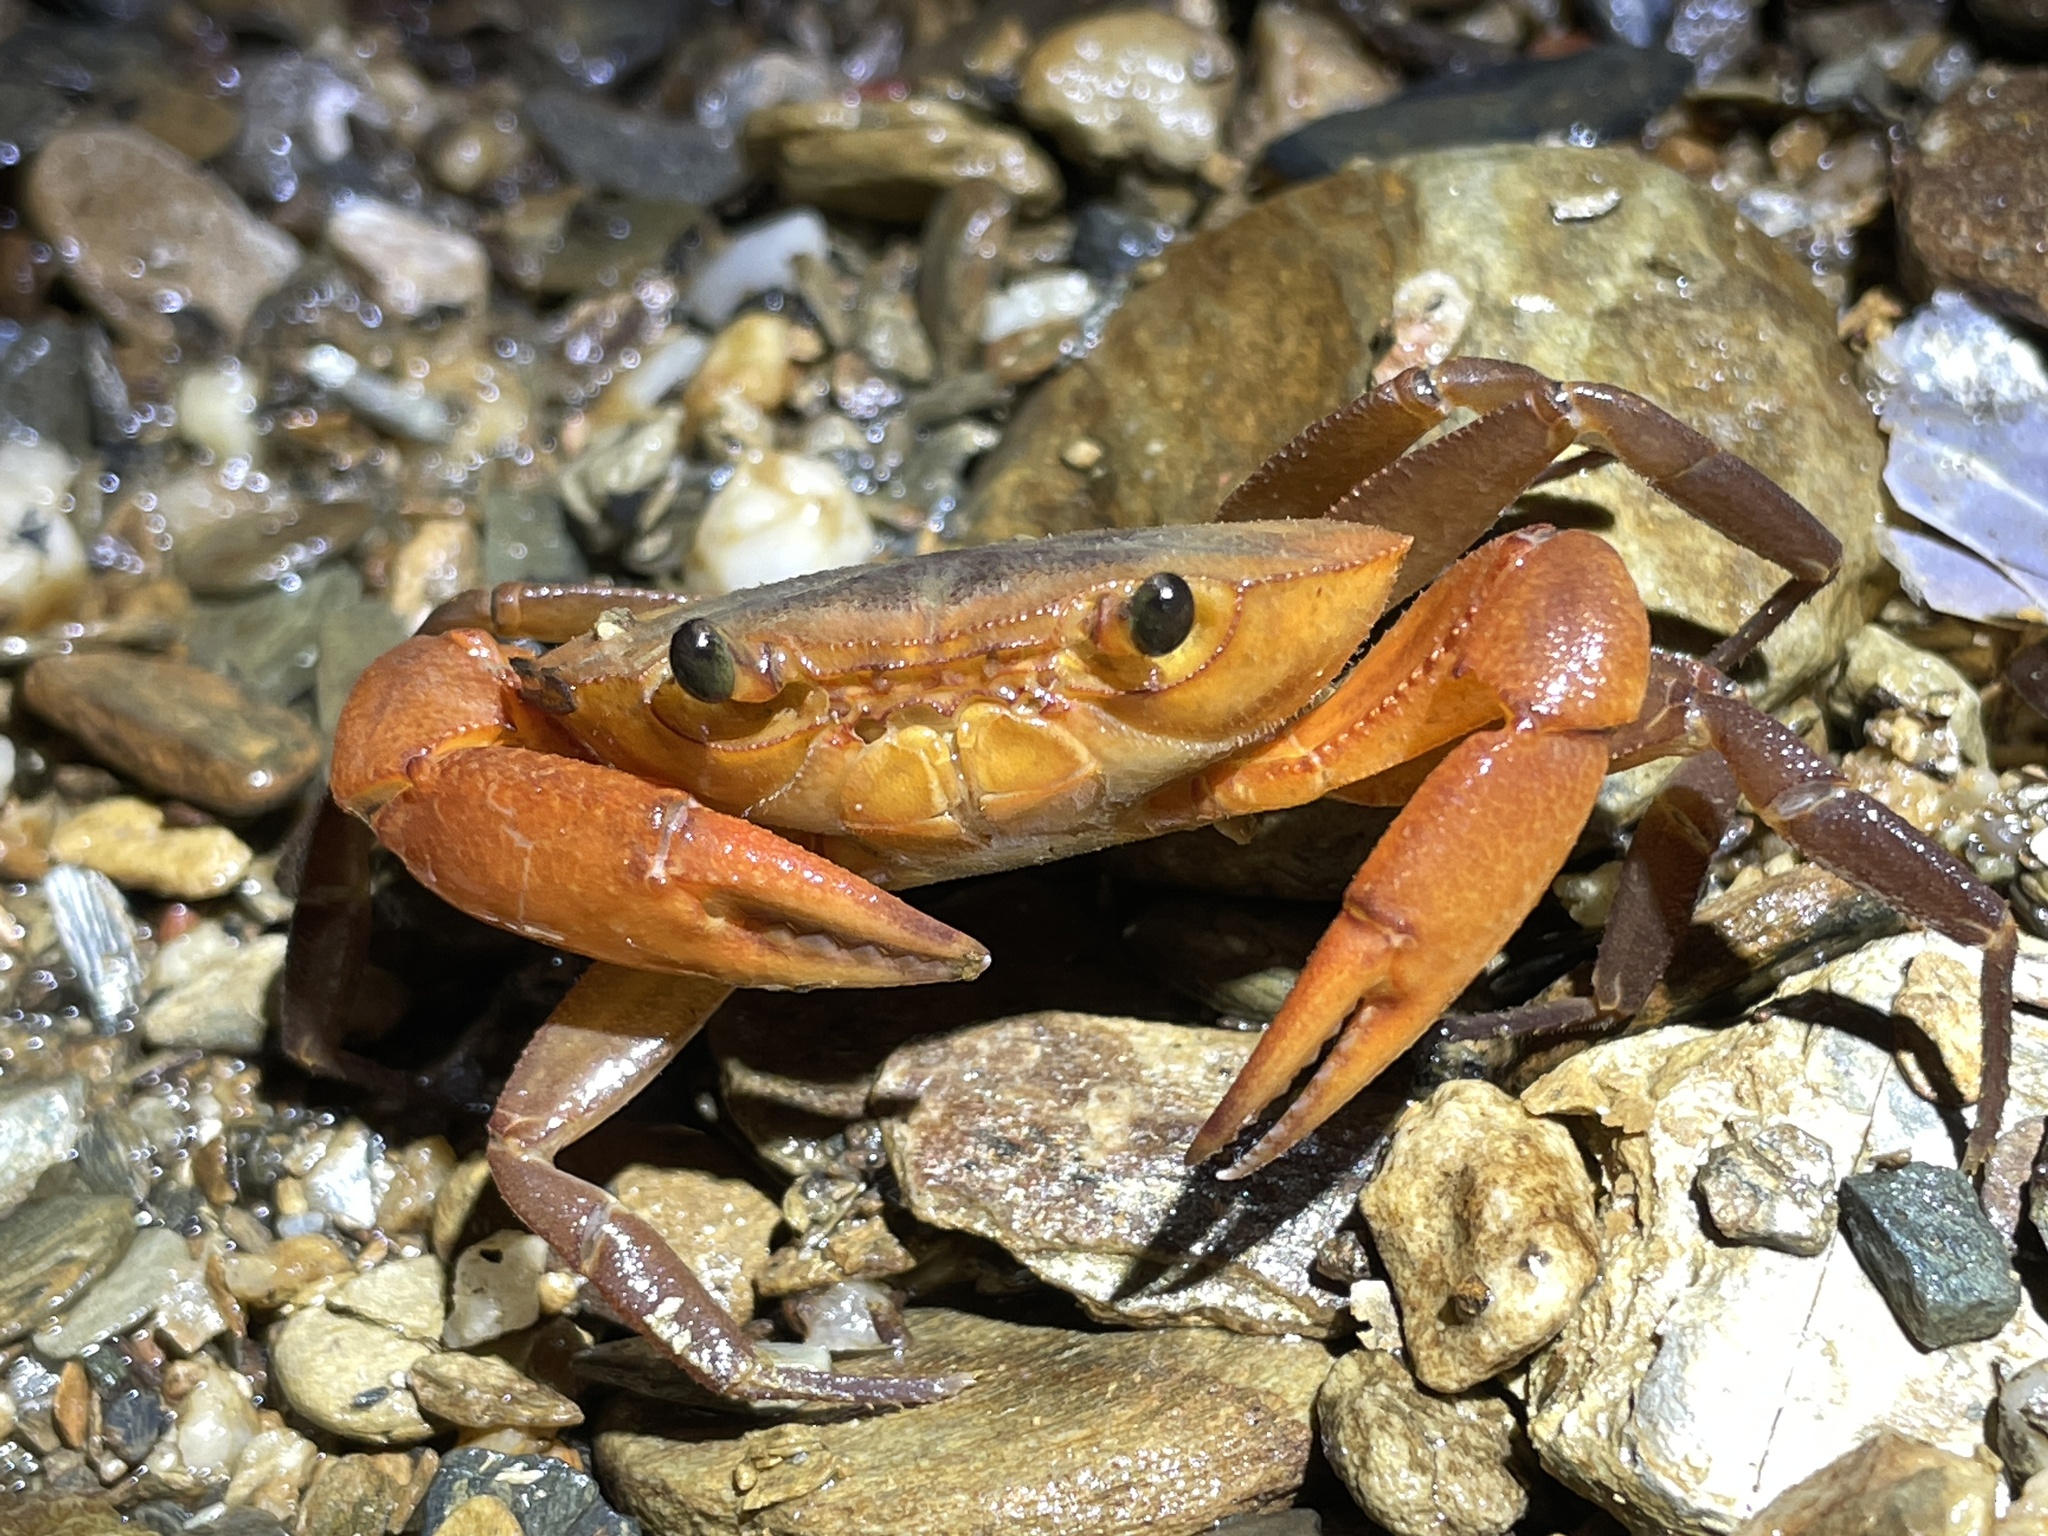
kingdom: Animalia
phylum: Arthropoda
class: Malacostraca
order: Decapoda
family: Pseudothelphusidae
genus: Rodriguezus
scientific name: Rodriguezus garmani
